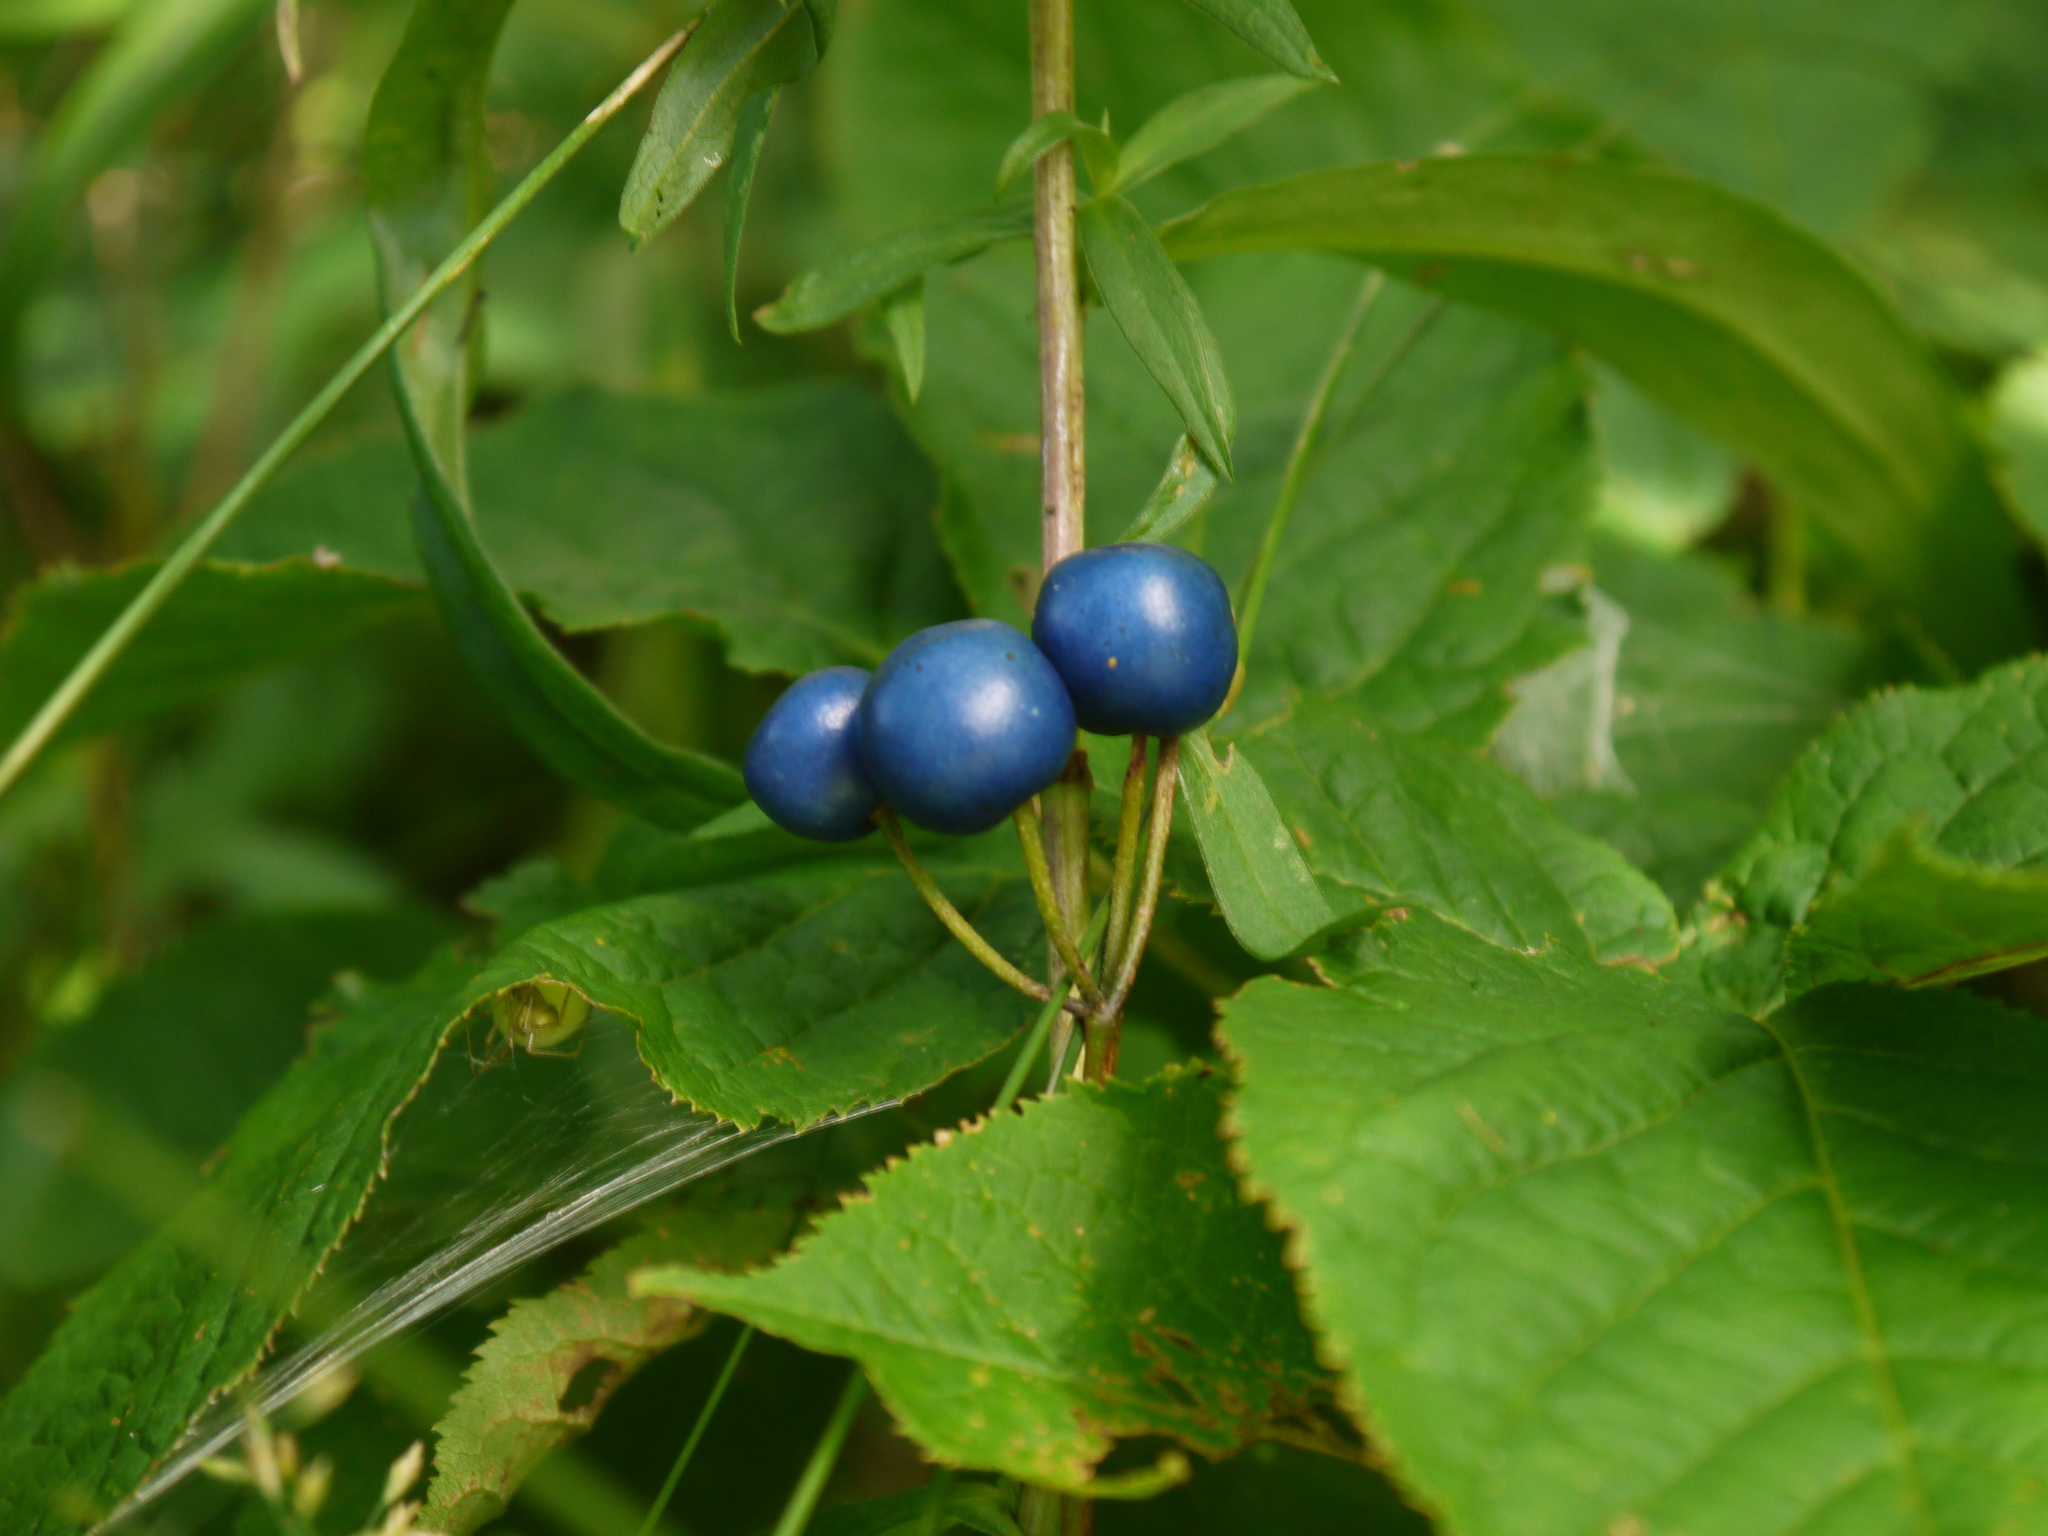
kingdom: Plantae
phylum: Tracheophyta
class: Liliopsida
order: Liliales
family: Liliaceae
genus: Clintonia
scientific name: Clintonia borealis
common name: Yellow clintonia
